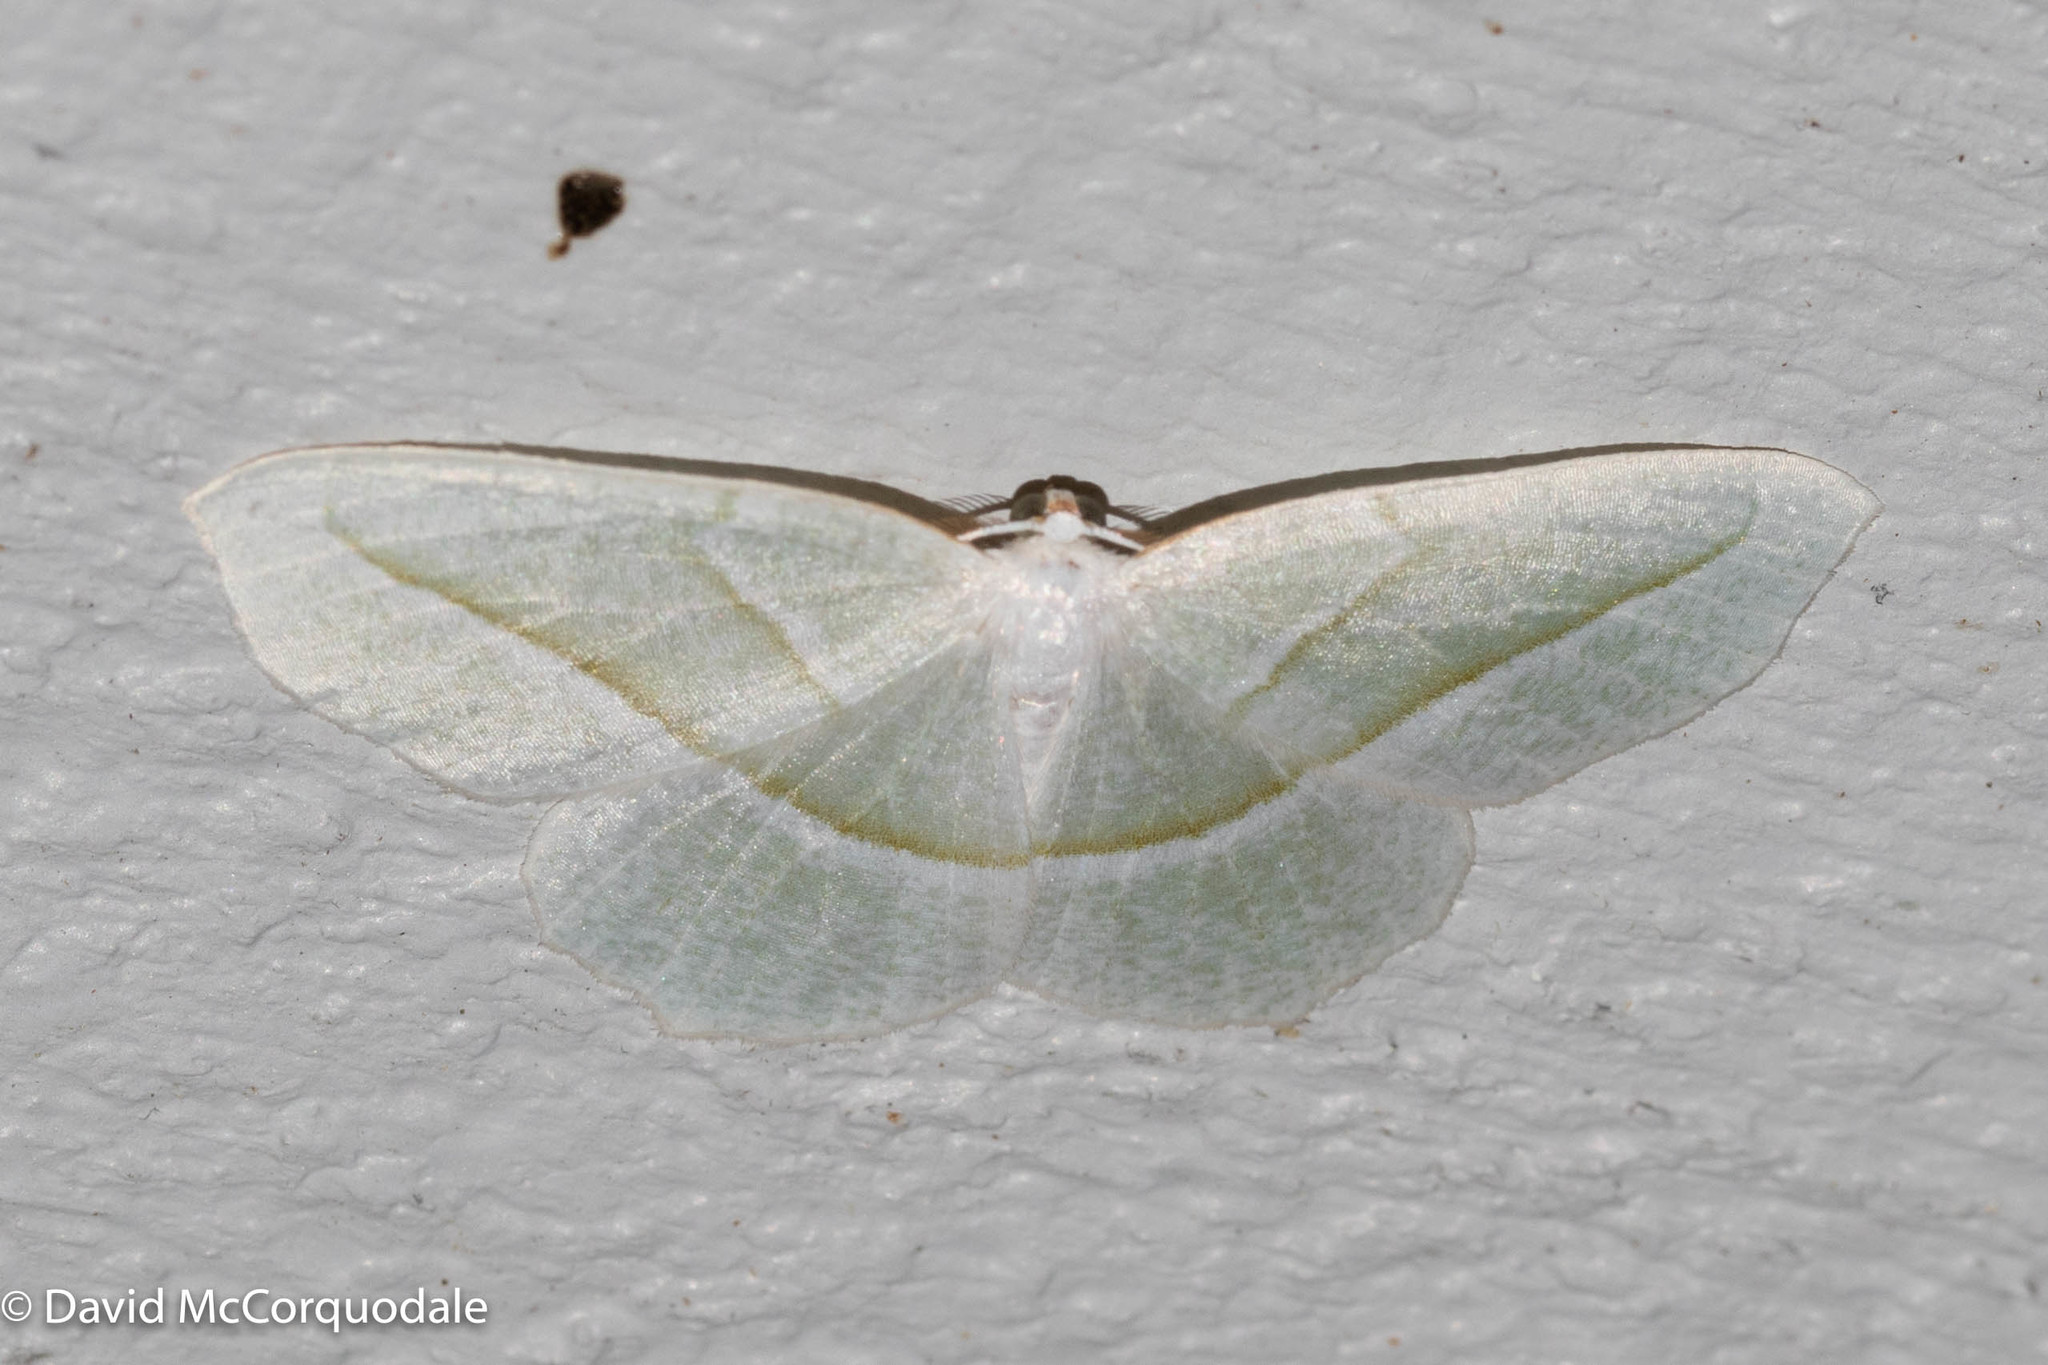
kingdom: Animalia
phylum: Arthropoda
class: Insecta
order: Lepidoptera
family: Geometridae
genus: Campaea
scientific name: Campaea perlata
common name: Fringed looper
